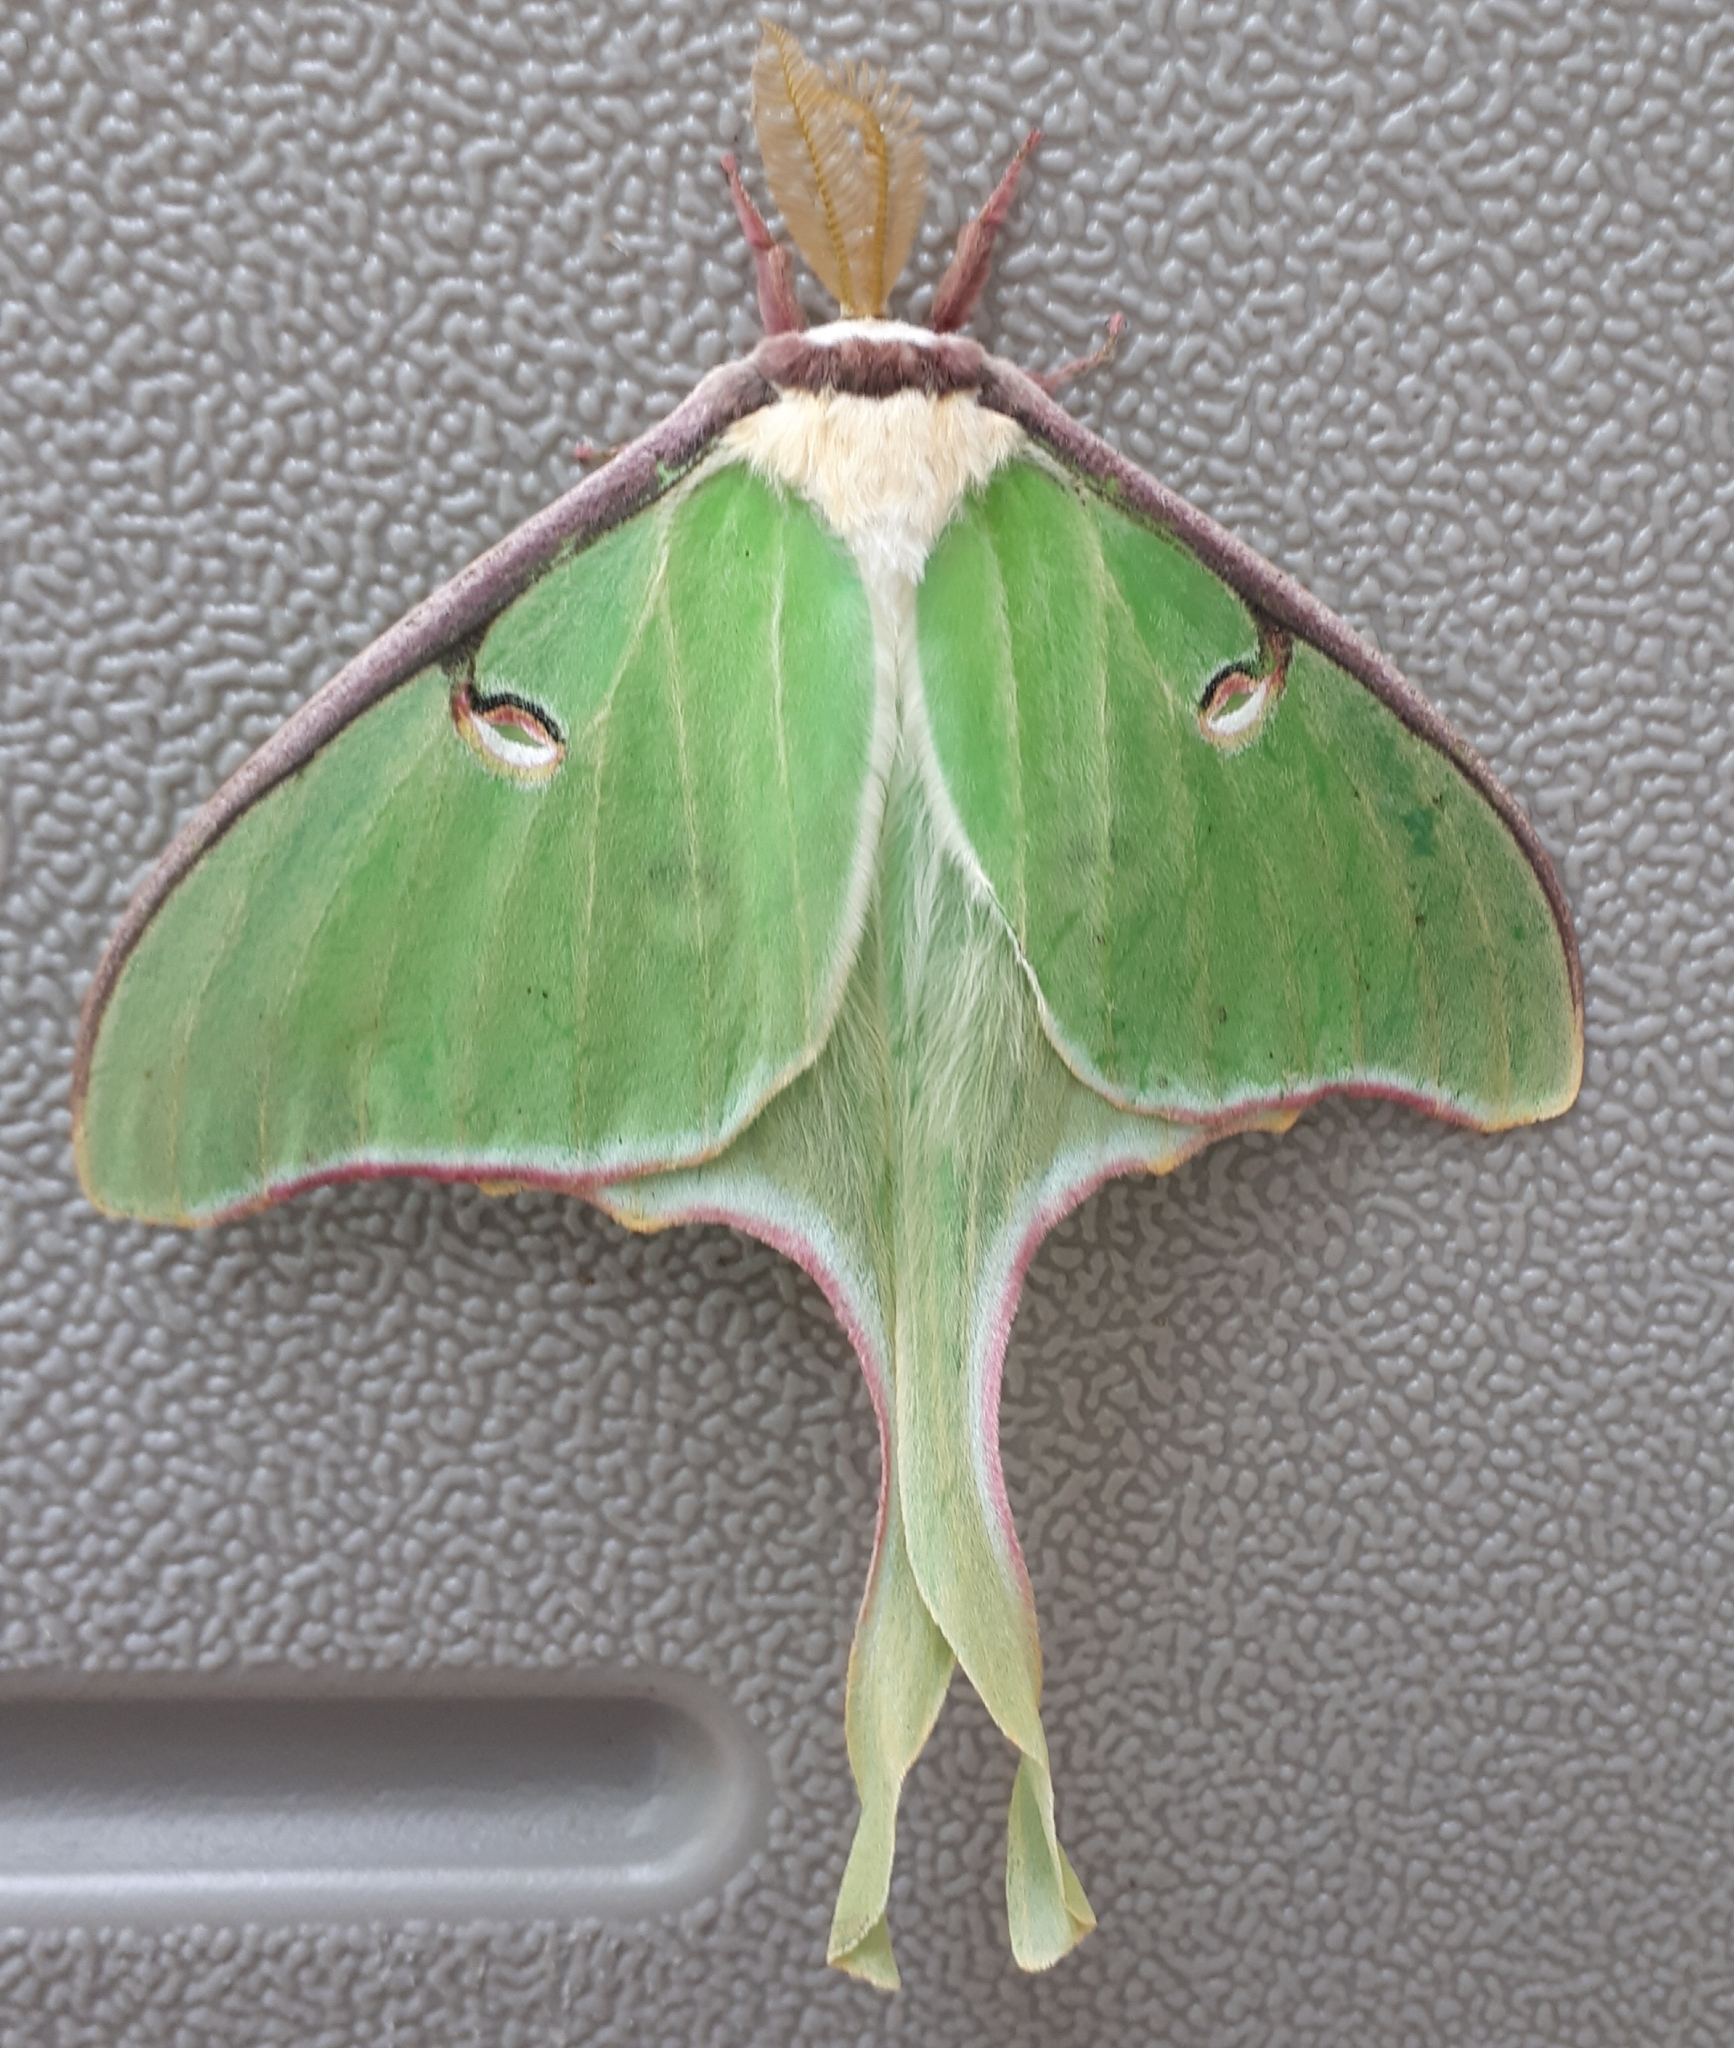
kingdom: Animalia
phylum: Arthropoda
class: Insecta
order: Lepidoptera
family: Saturniidae
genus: Actias
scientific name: Actias luna
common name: Luna moth
